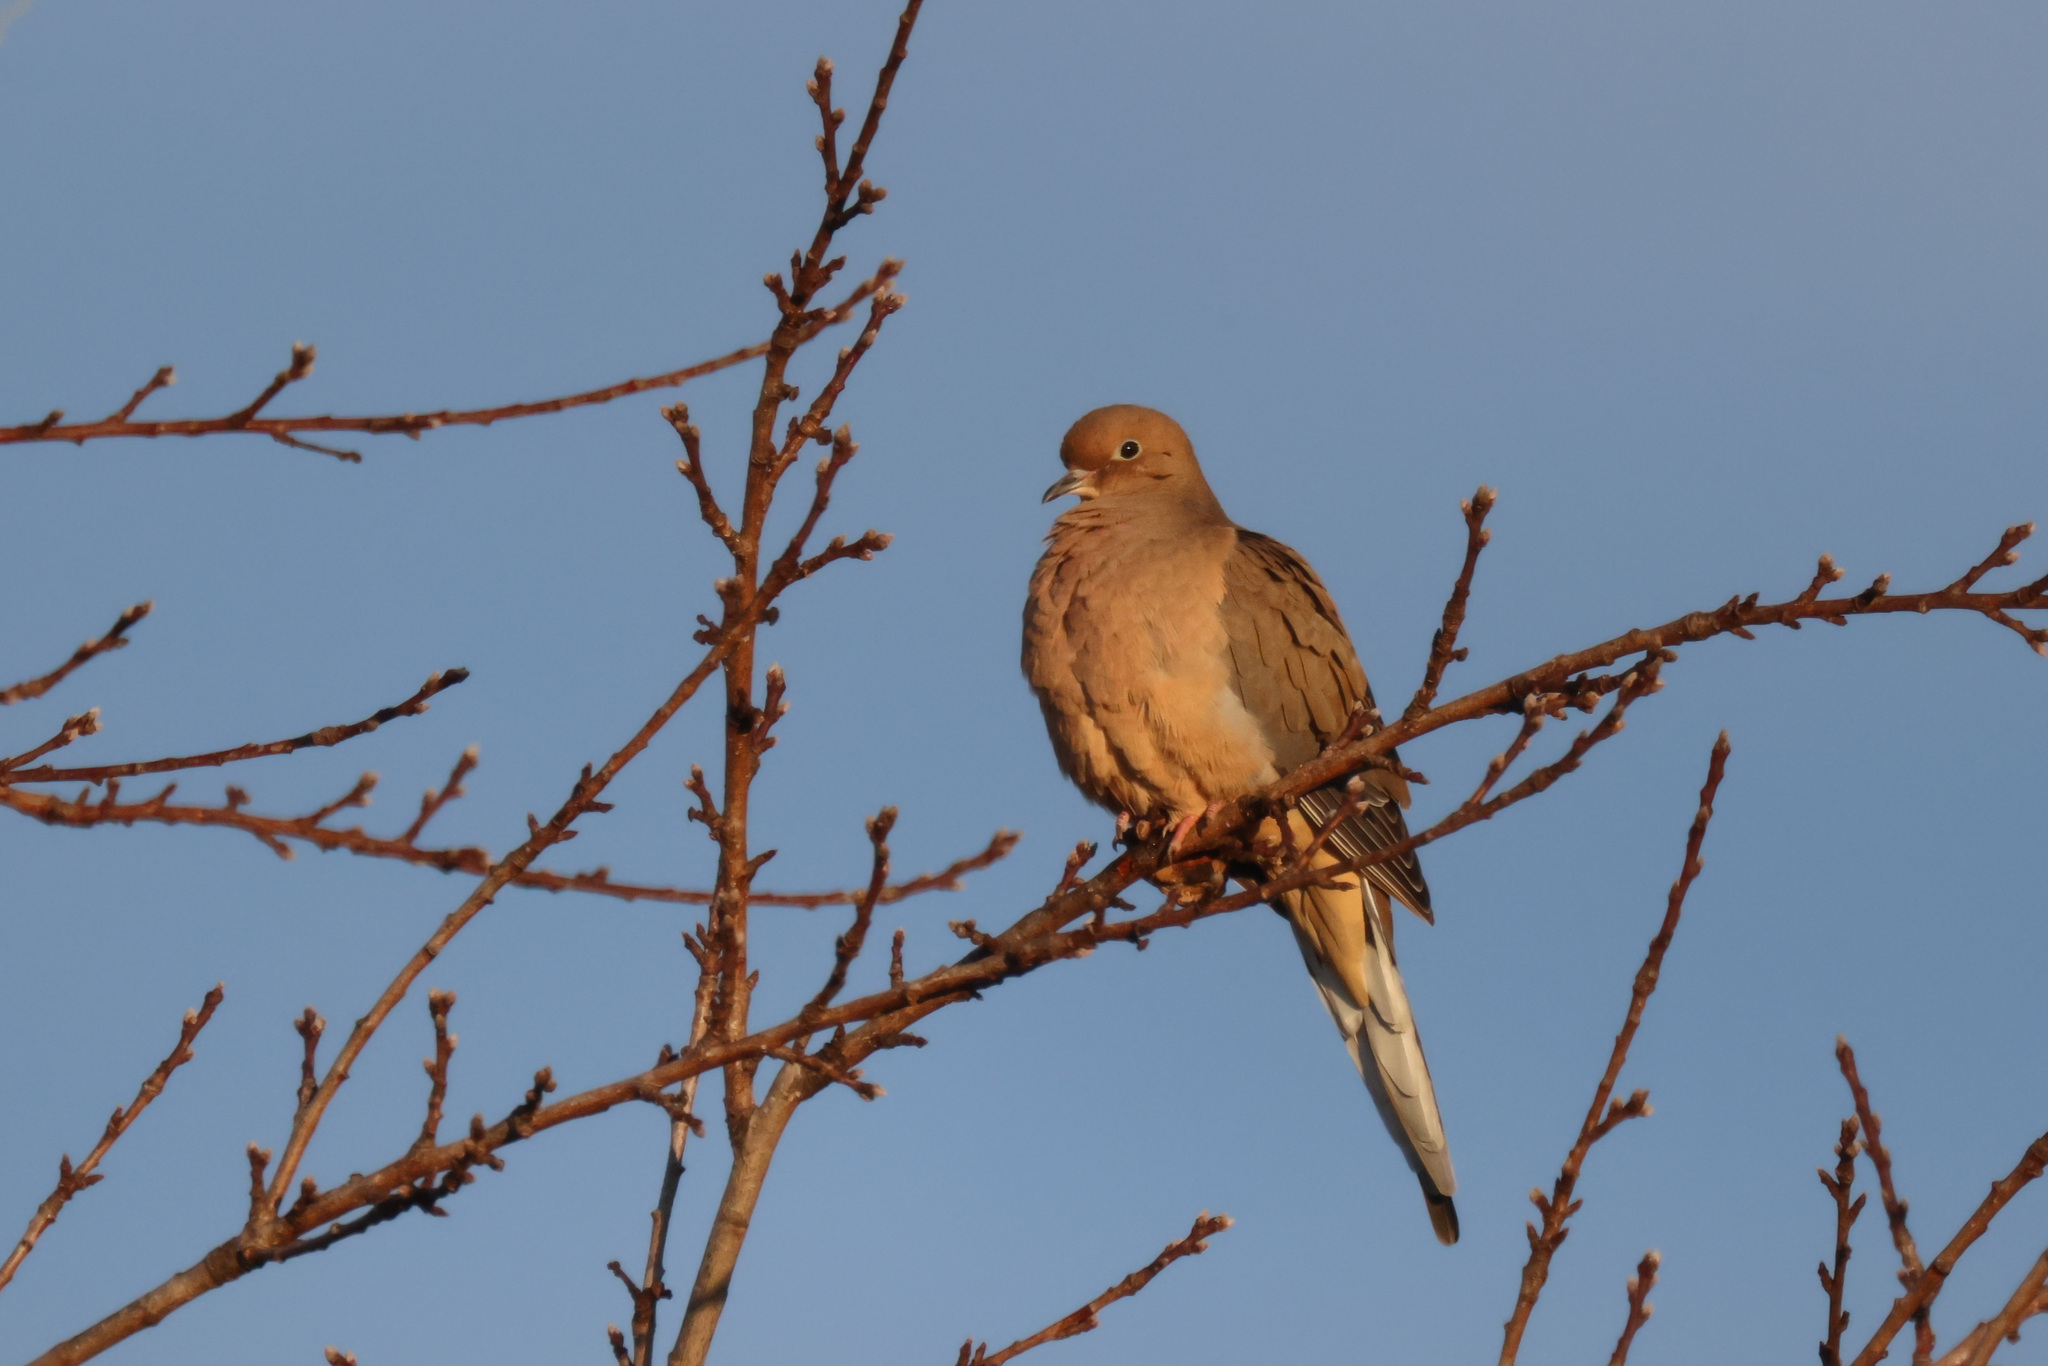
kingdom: Animalia
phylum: Chordata
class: Aves
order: Columbiformes
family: Columbidae
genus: Zenaida
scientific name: Zenaida macroura
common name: Mourning dove
